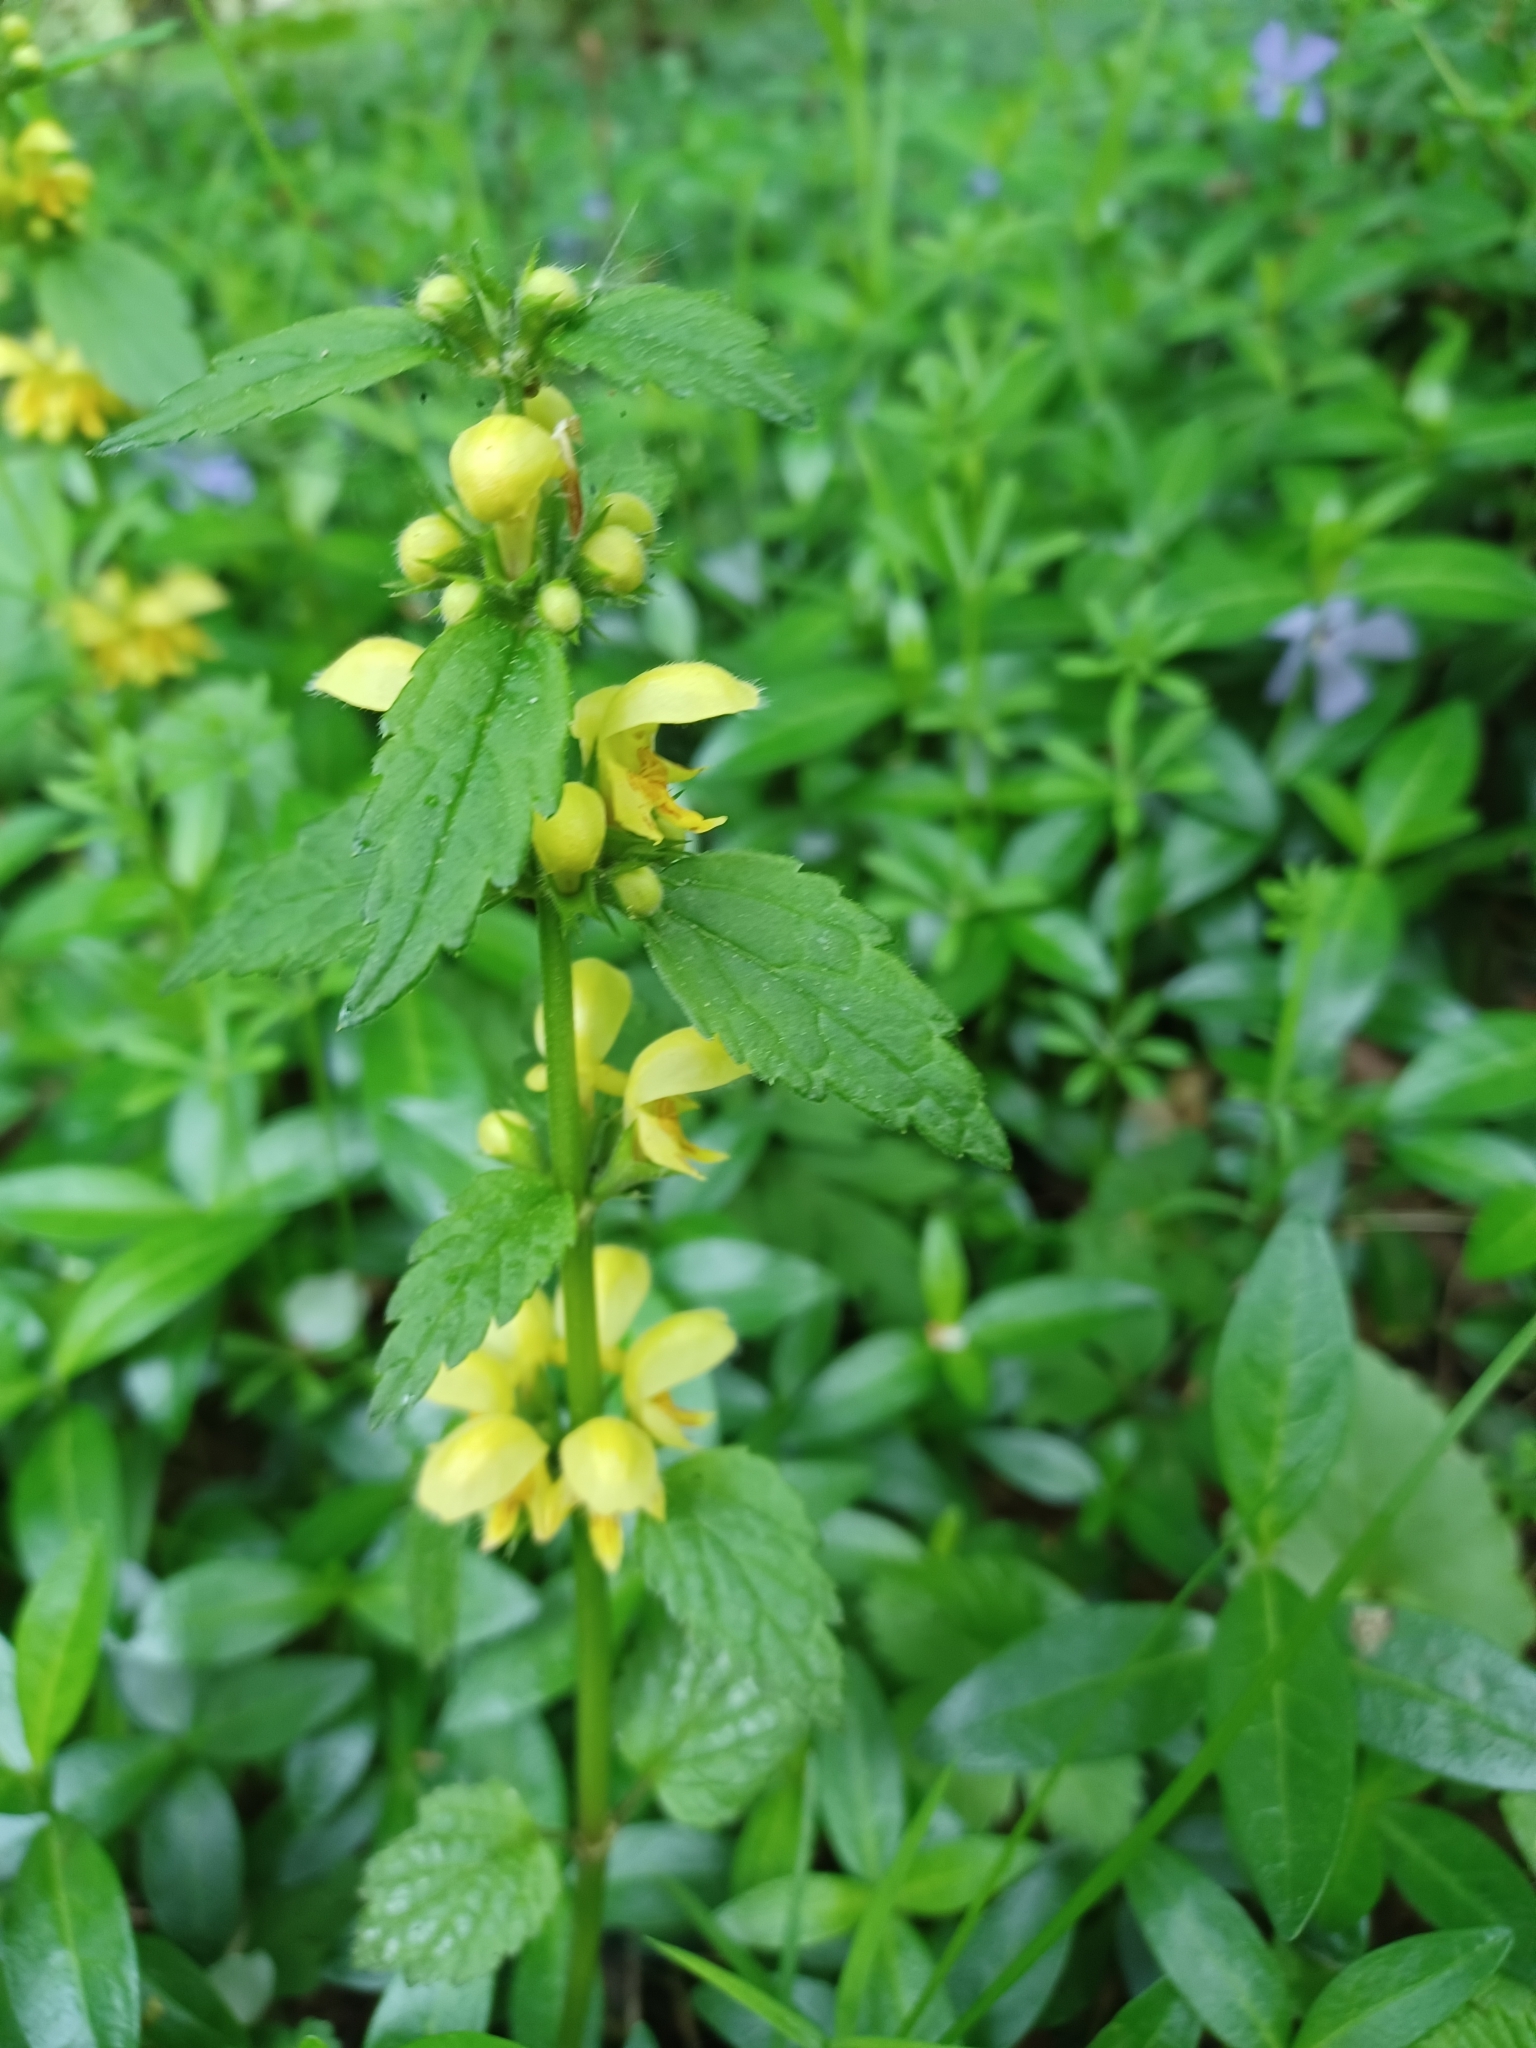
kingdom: Plantae
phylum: Tracheophyta
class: Magnoliopsida
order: Lamiales
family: Lamiaceae
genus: Lamium
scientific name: Lamium galeobdolon
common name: Yellow archangel
